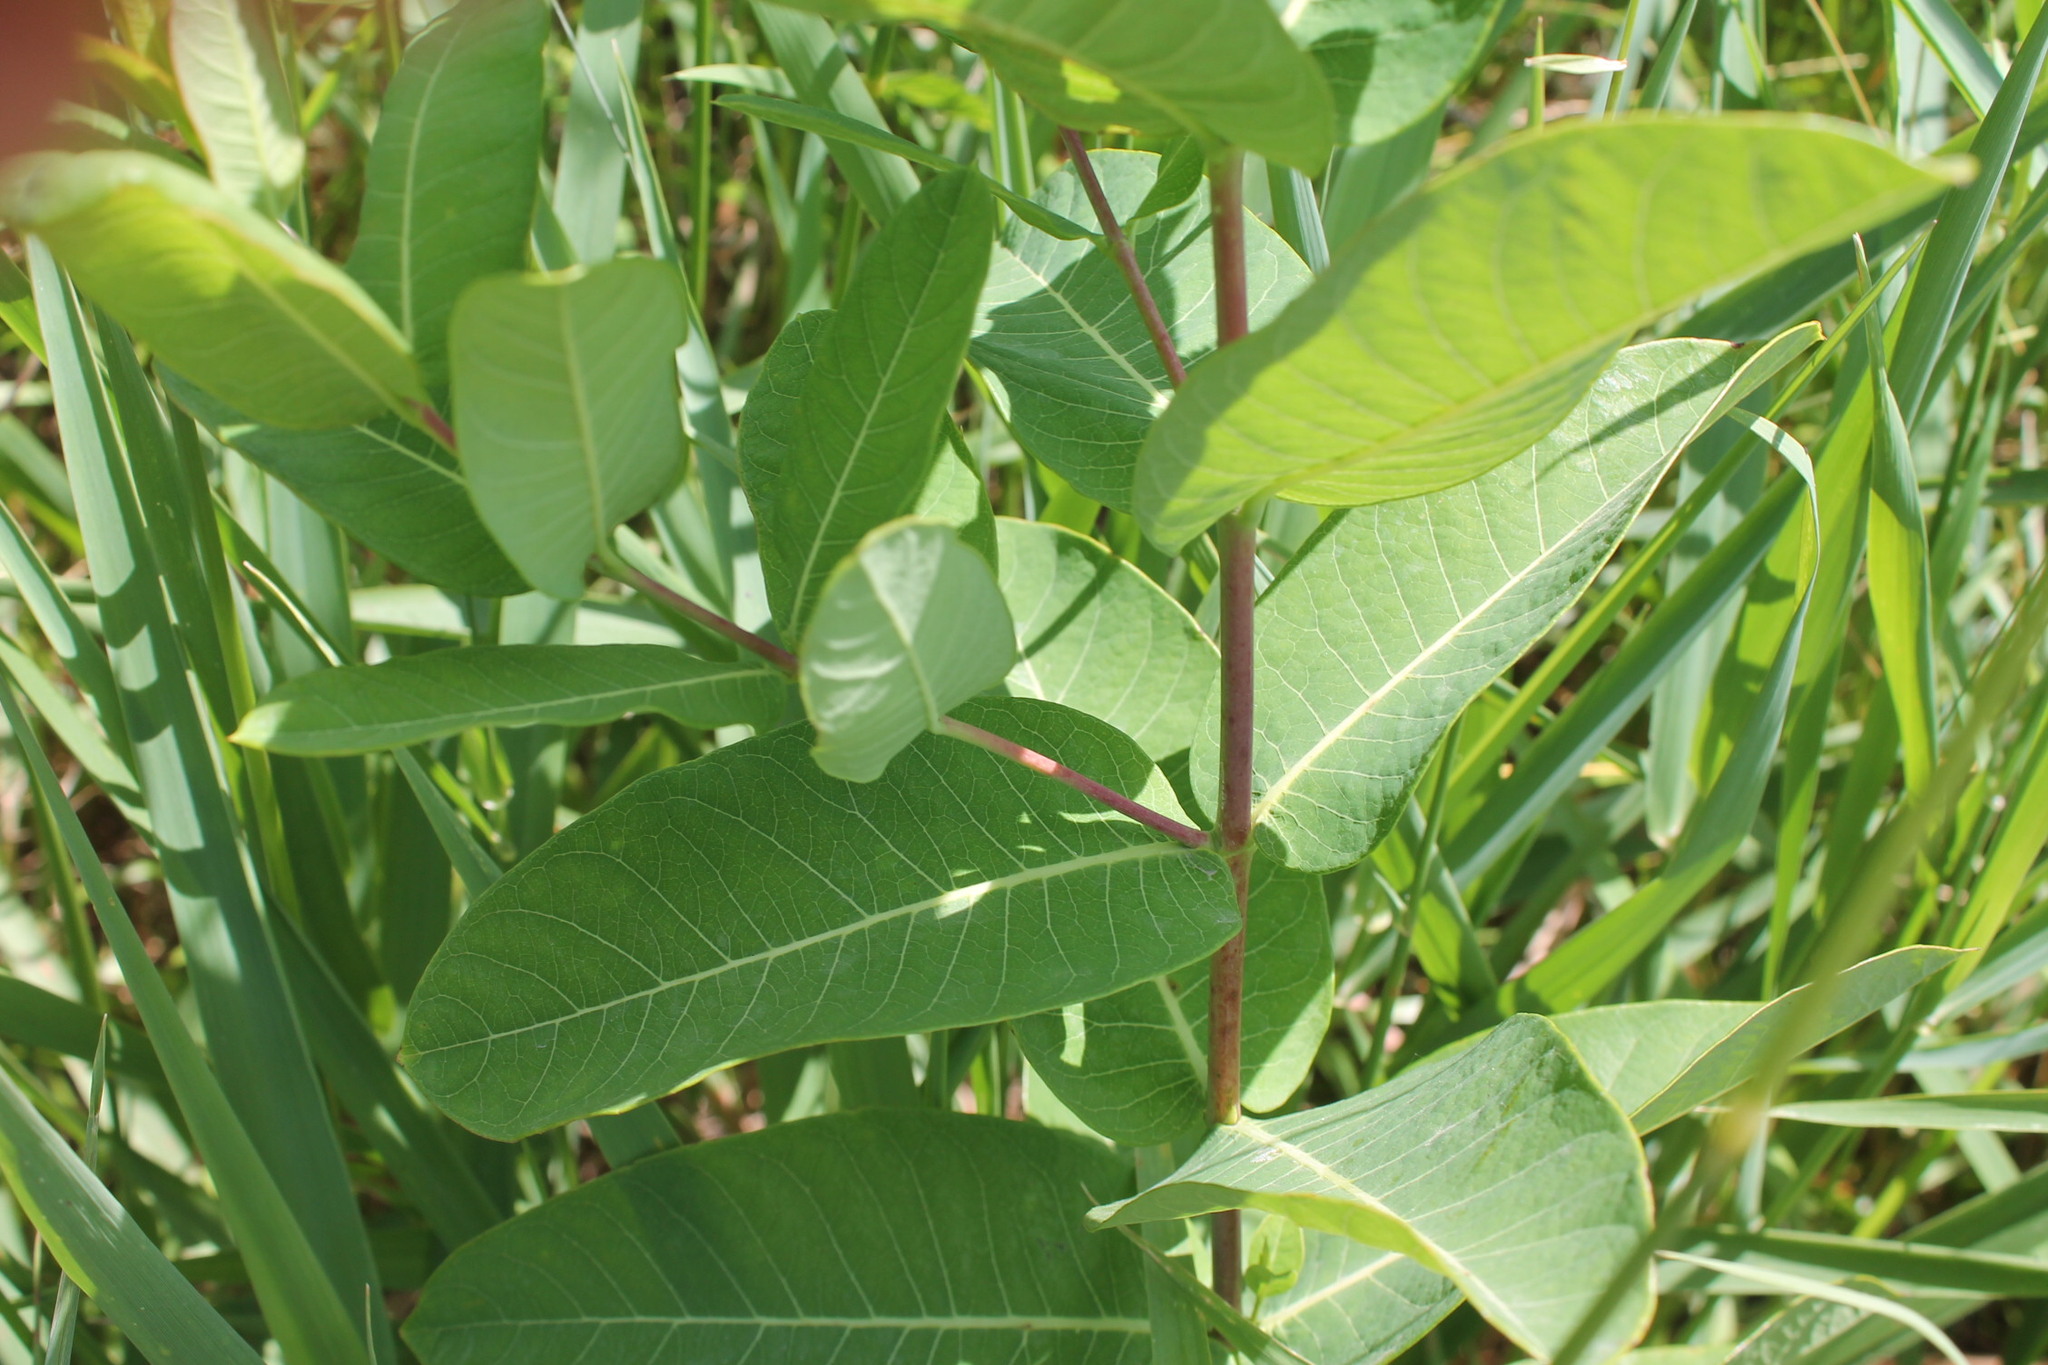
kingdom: Plantae
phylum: Tracheophyta
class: Magnoliopsida
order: Gentianales
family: Apocynaceae
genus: Apocynum
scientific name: Apocynum cannabinum
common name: Hemp dogbane
